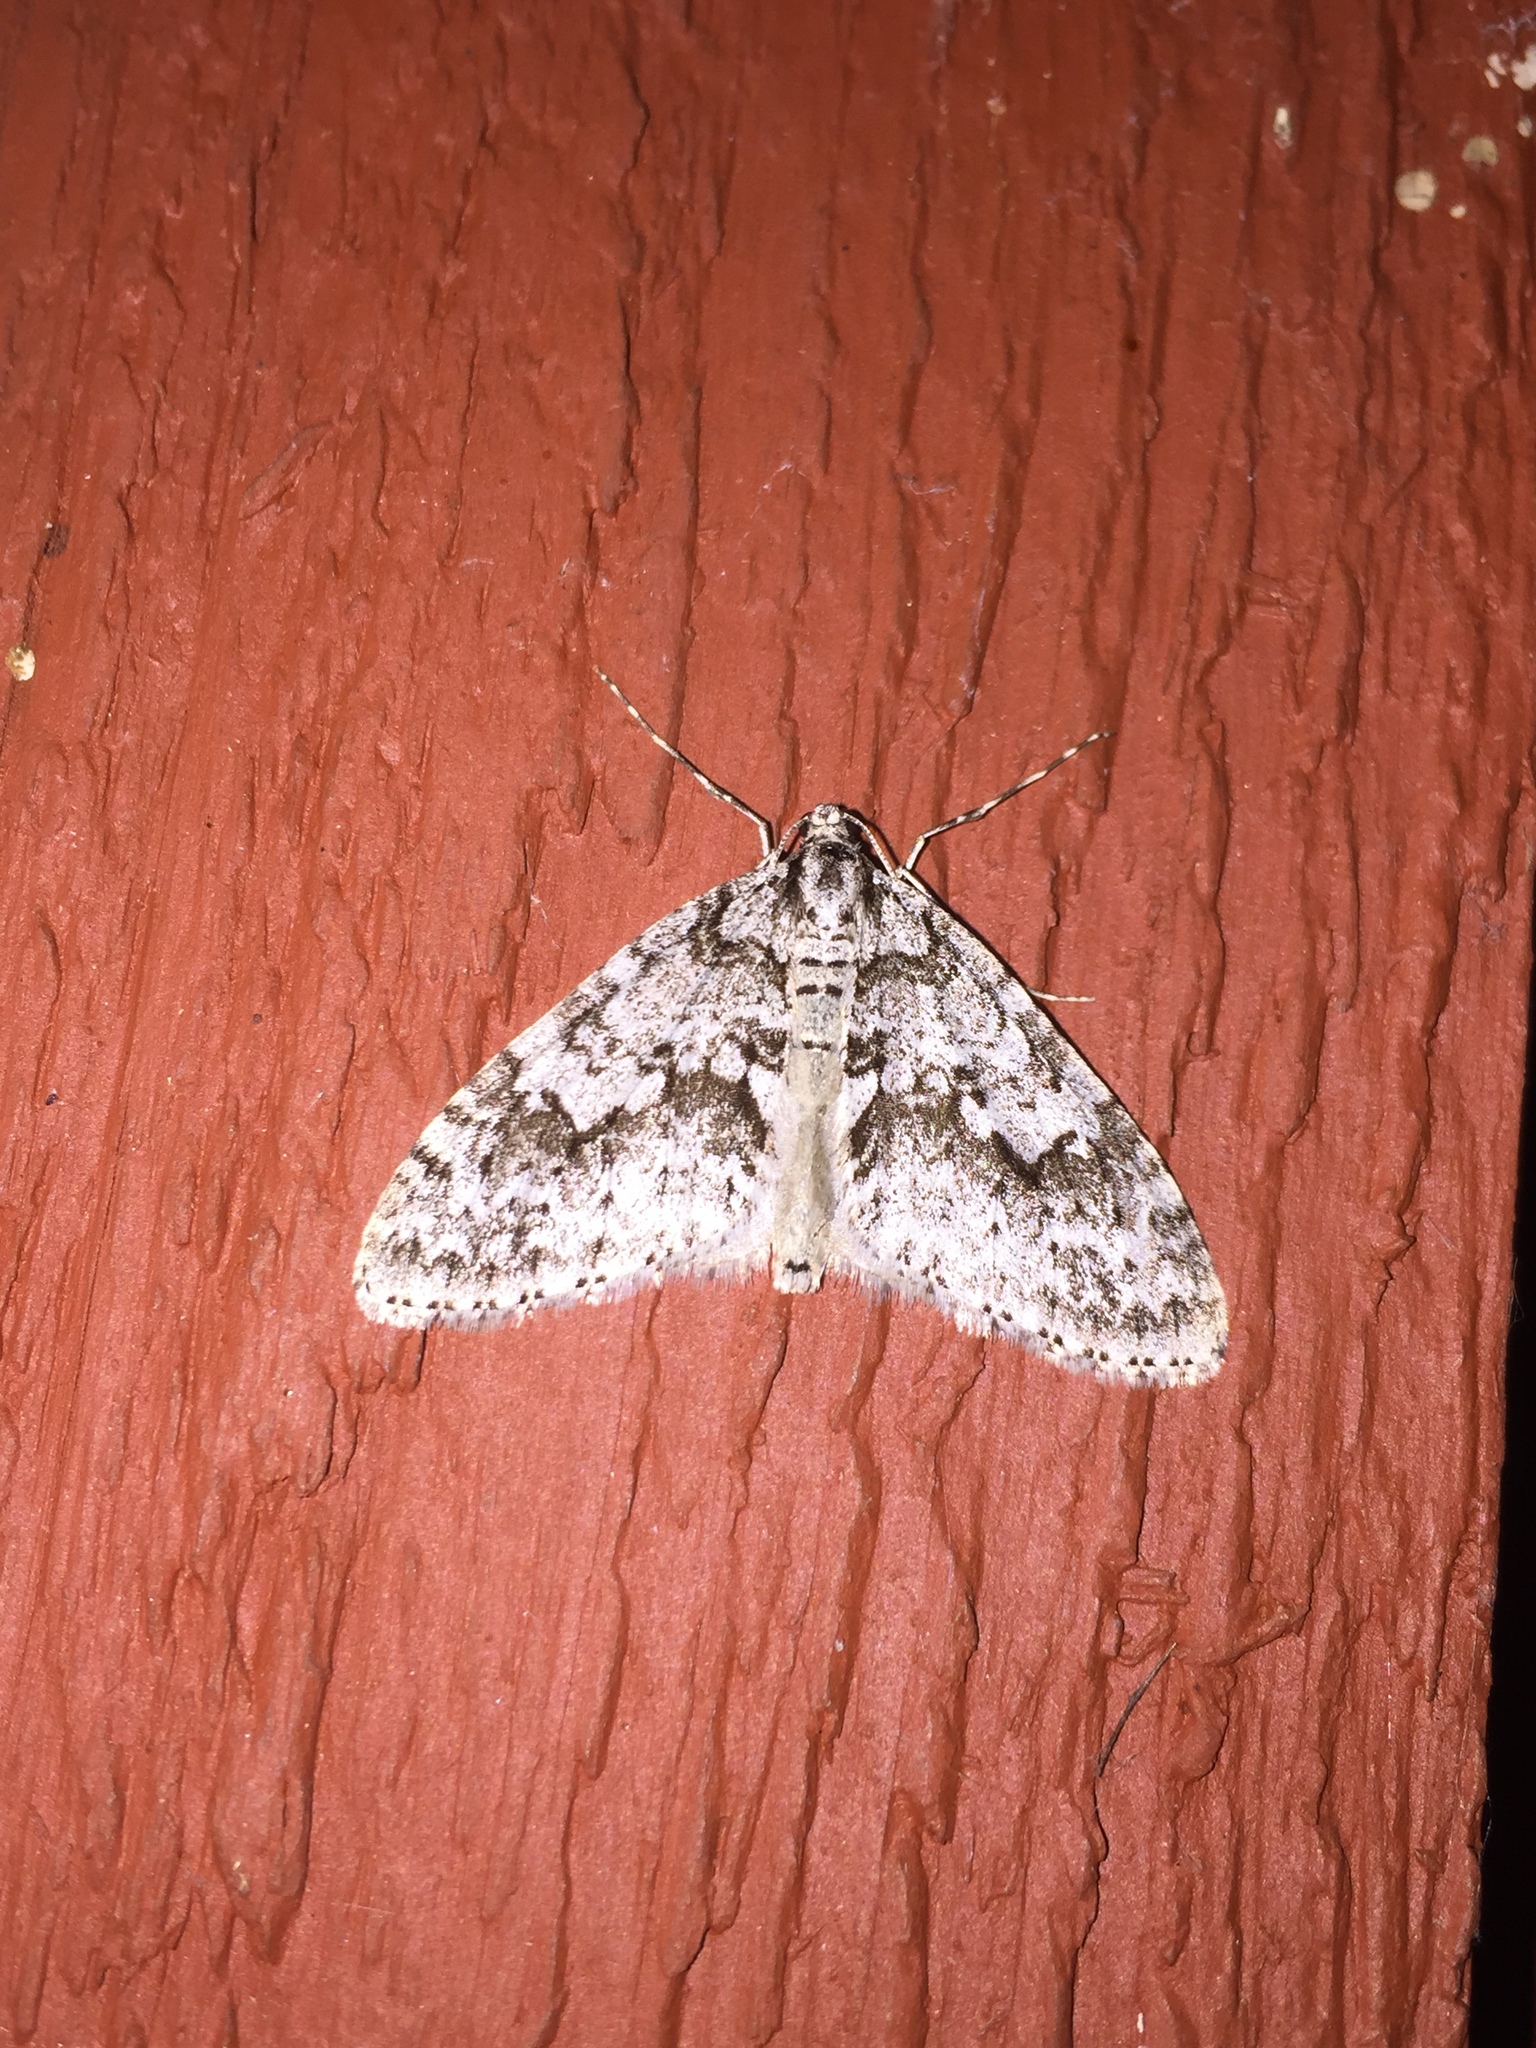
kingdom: Animalia
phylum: Arthropoda
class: Insecta
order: Lepidoptera
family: Geometridae
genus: Cladara
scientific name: Cladara limitaria
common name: Mottled gray carpet
